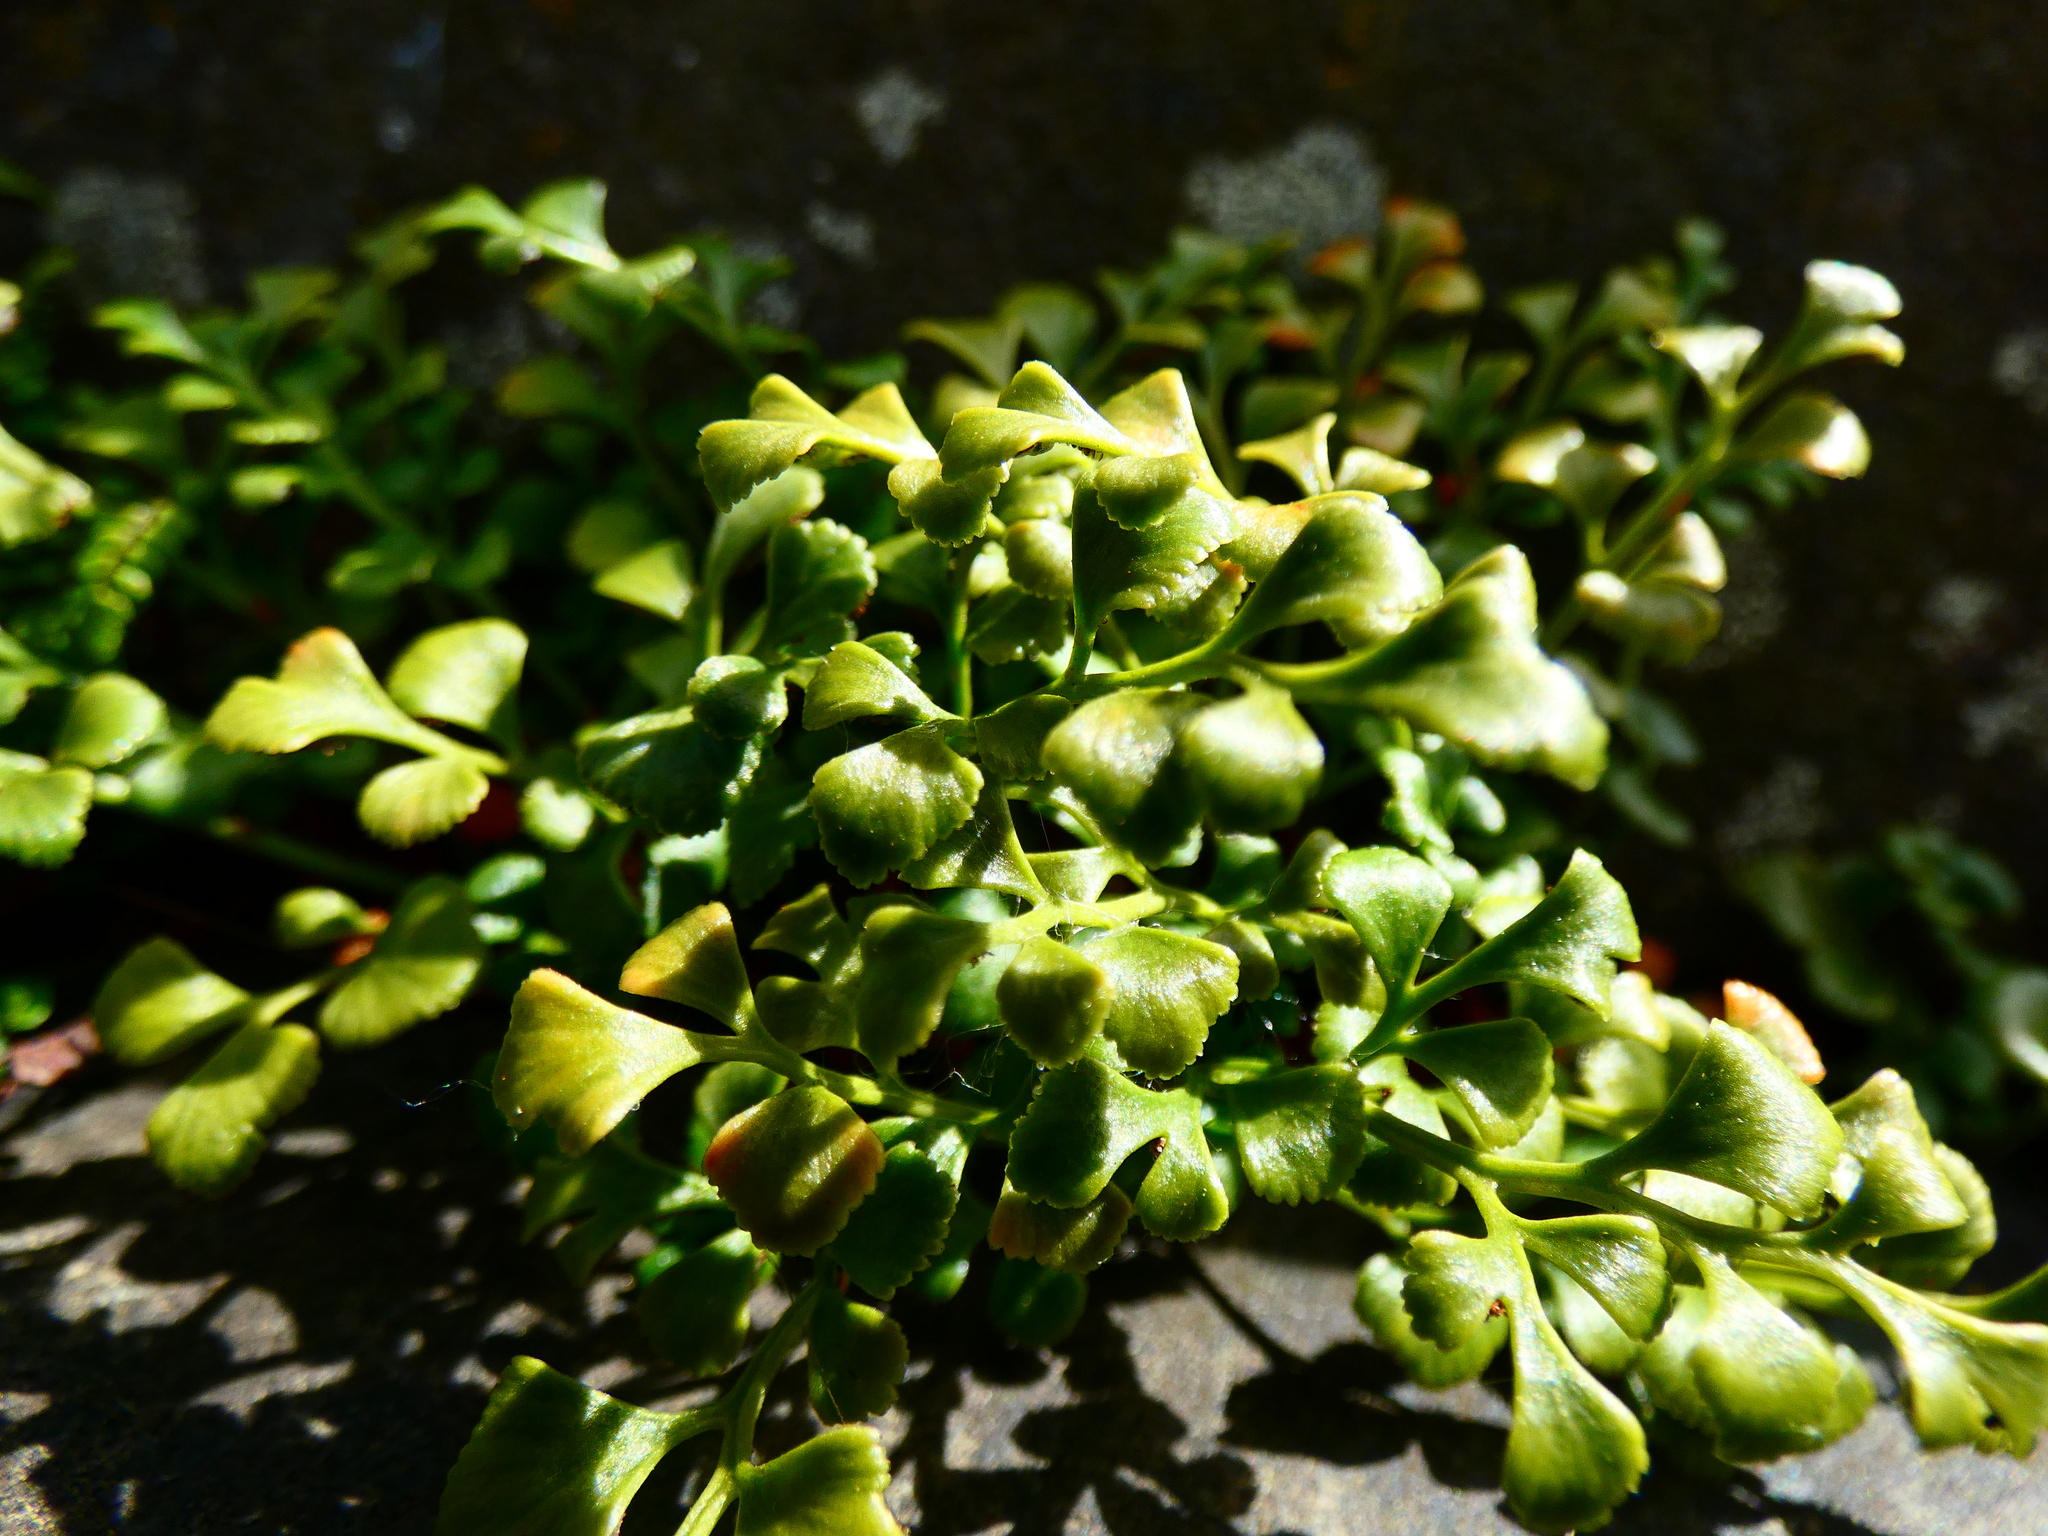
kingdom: Plantae
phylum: Tracheophyta
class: Polypodiopsida
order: Polypodiales
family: Aspleniaceae
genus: Asplenium
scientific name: Asplenium ruta-muraria
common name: Wall-rue
